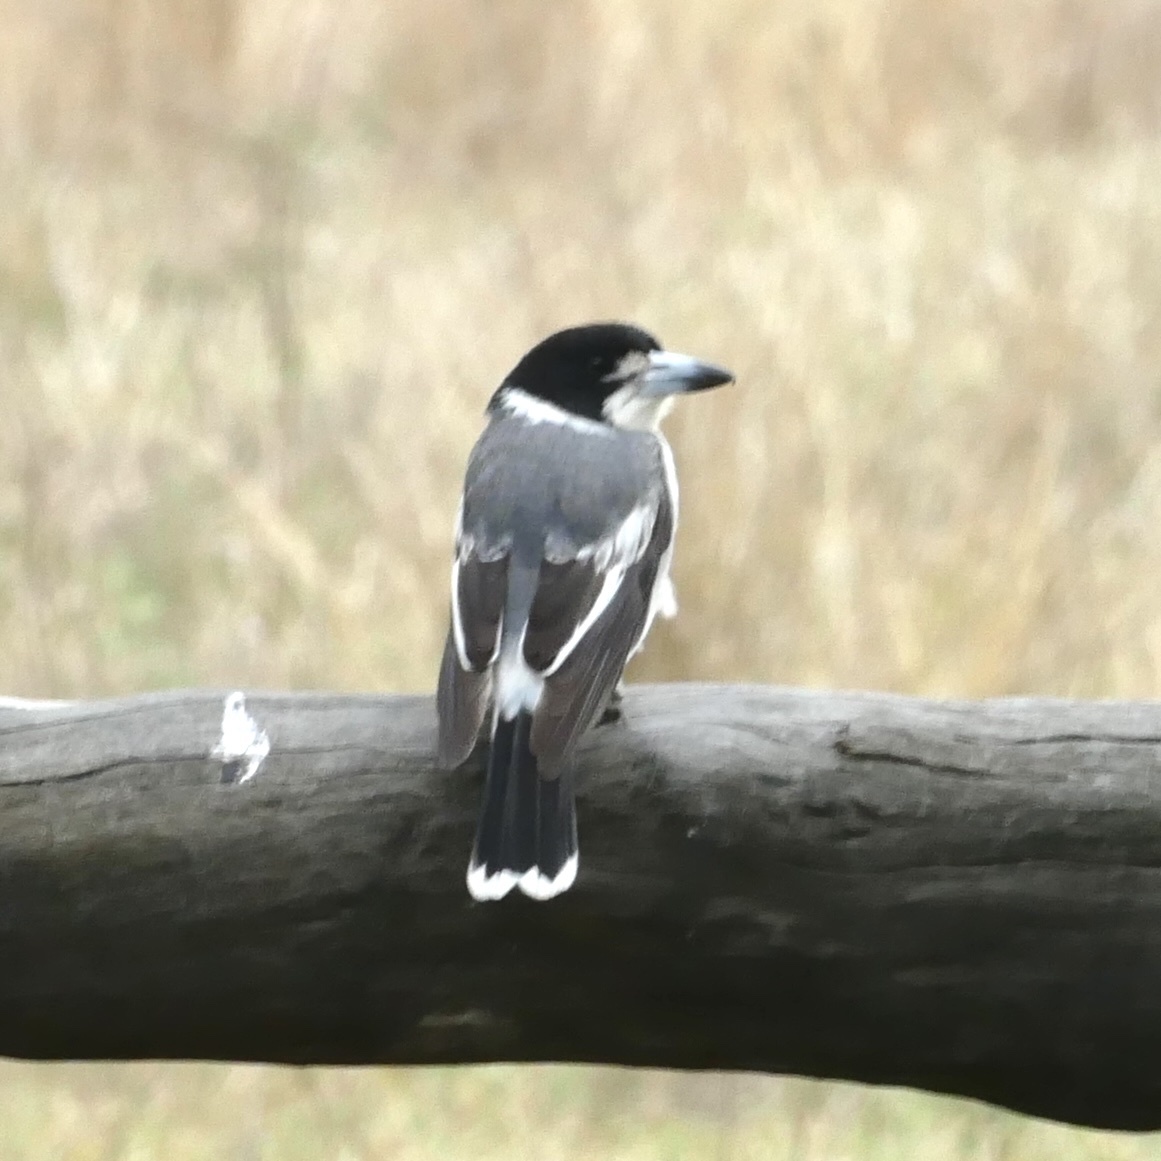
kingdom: Animalia
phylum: Chordata
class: Aves
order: Passeriformes
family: Cracticidae
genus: Cracticus
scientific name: Cracticus torquatus
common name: Grey butcherbird
